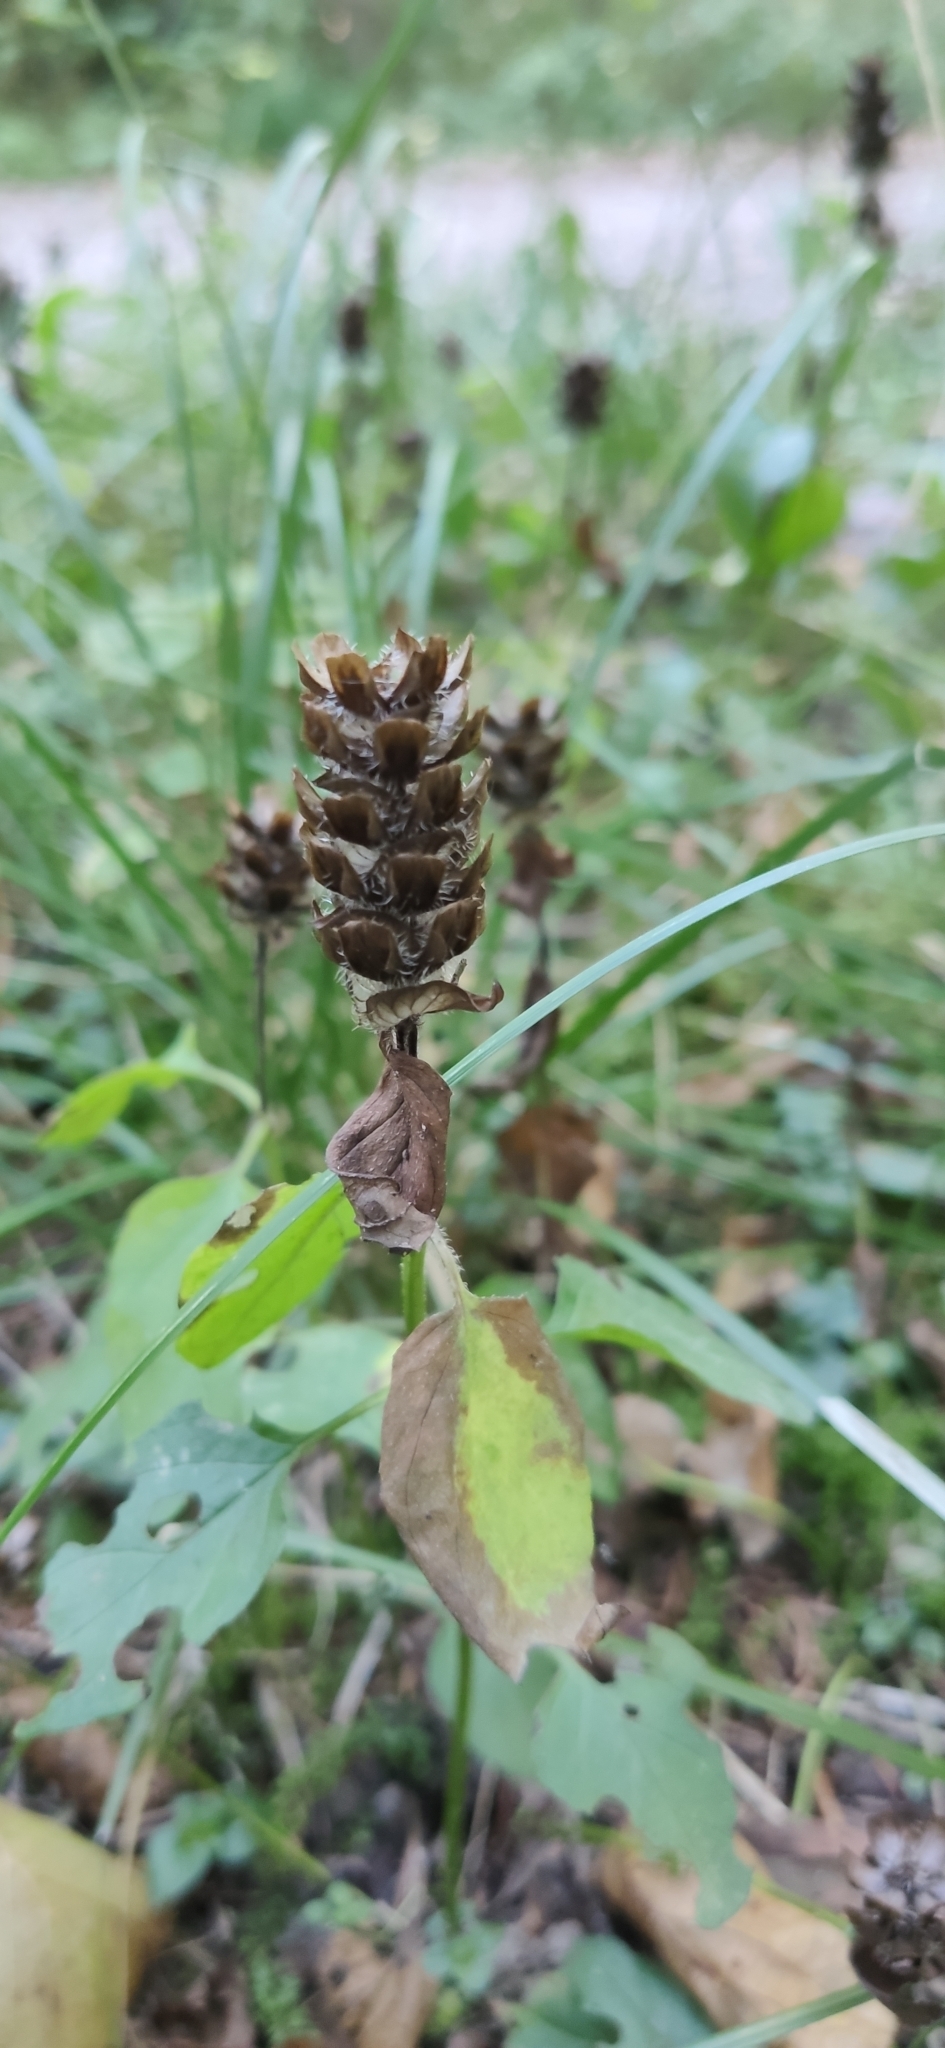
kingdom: Plantae
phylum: Tracheophyta
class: Magnoliopsida
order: Lamiales
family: Lamiaceae
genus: Prunella
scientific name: Prunella vulgaris
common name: Heal-all
